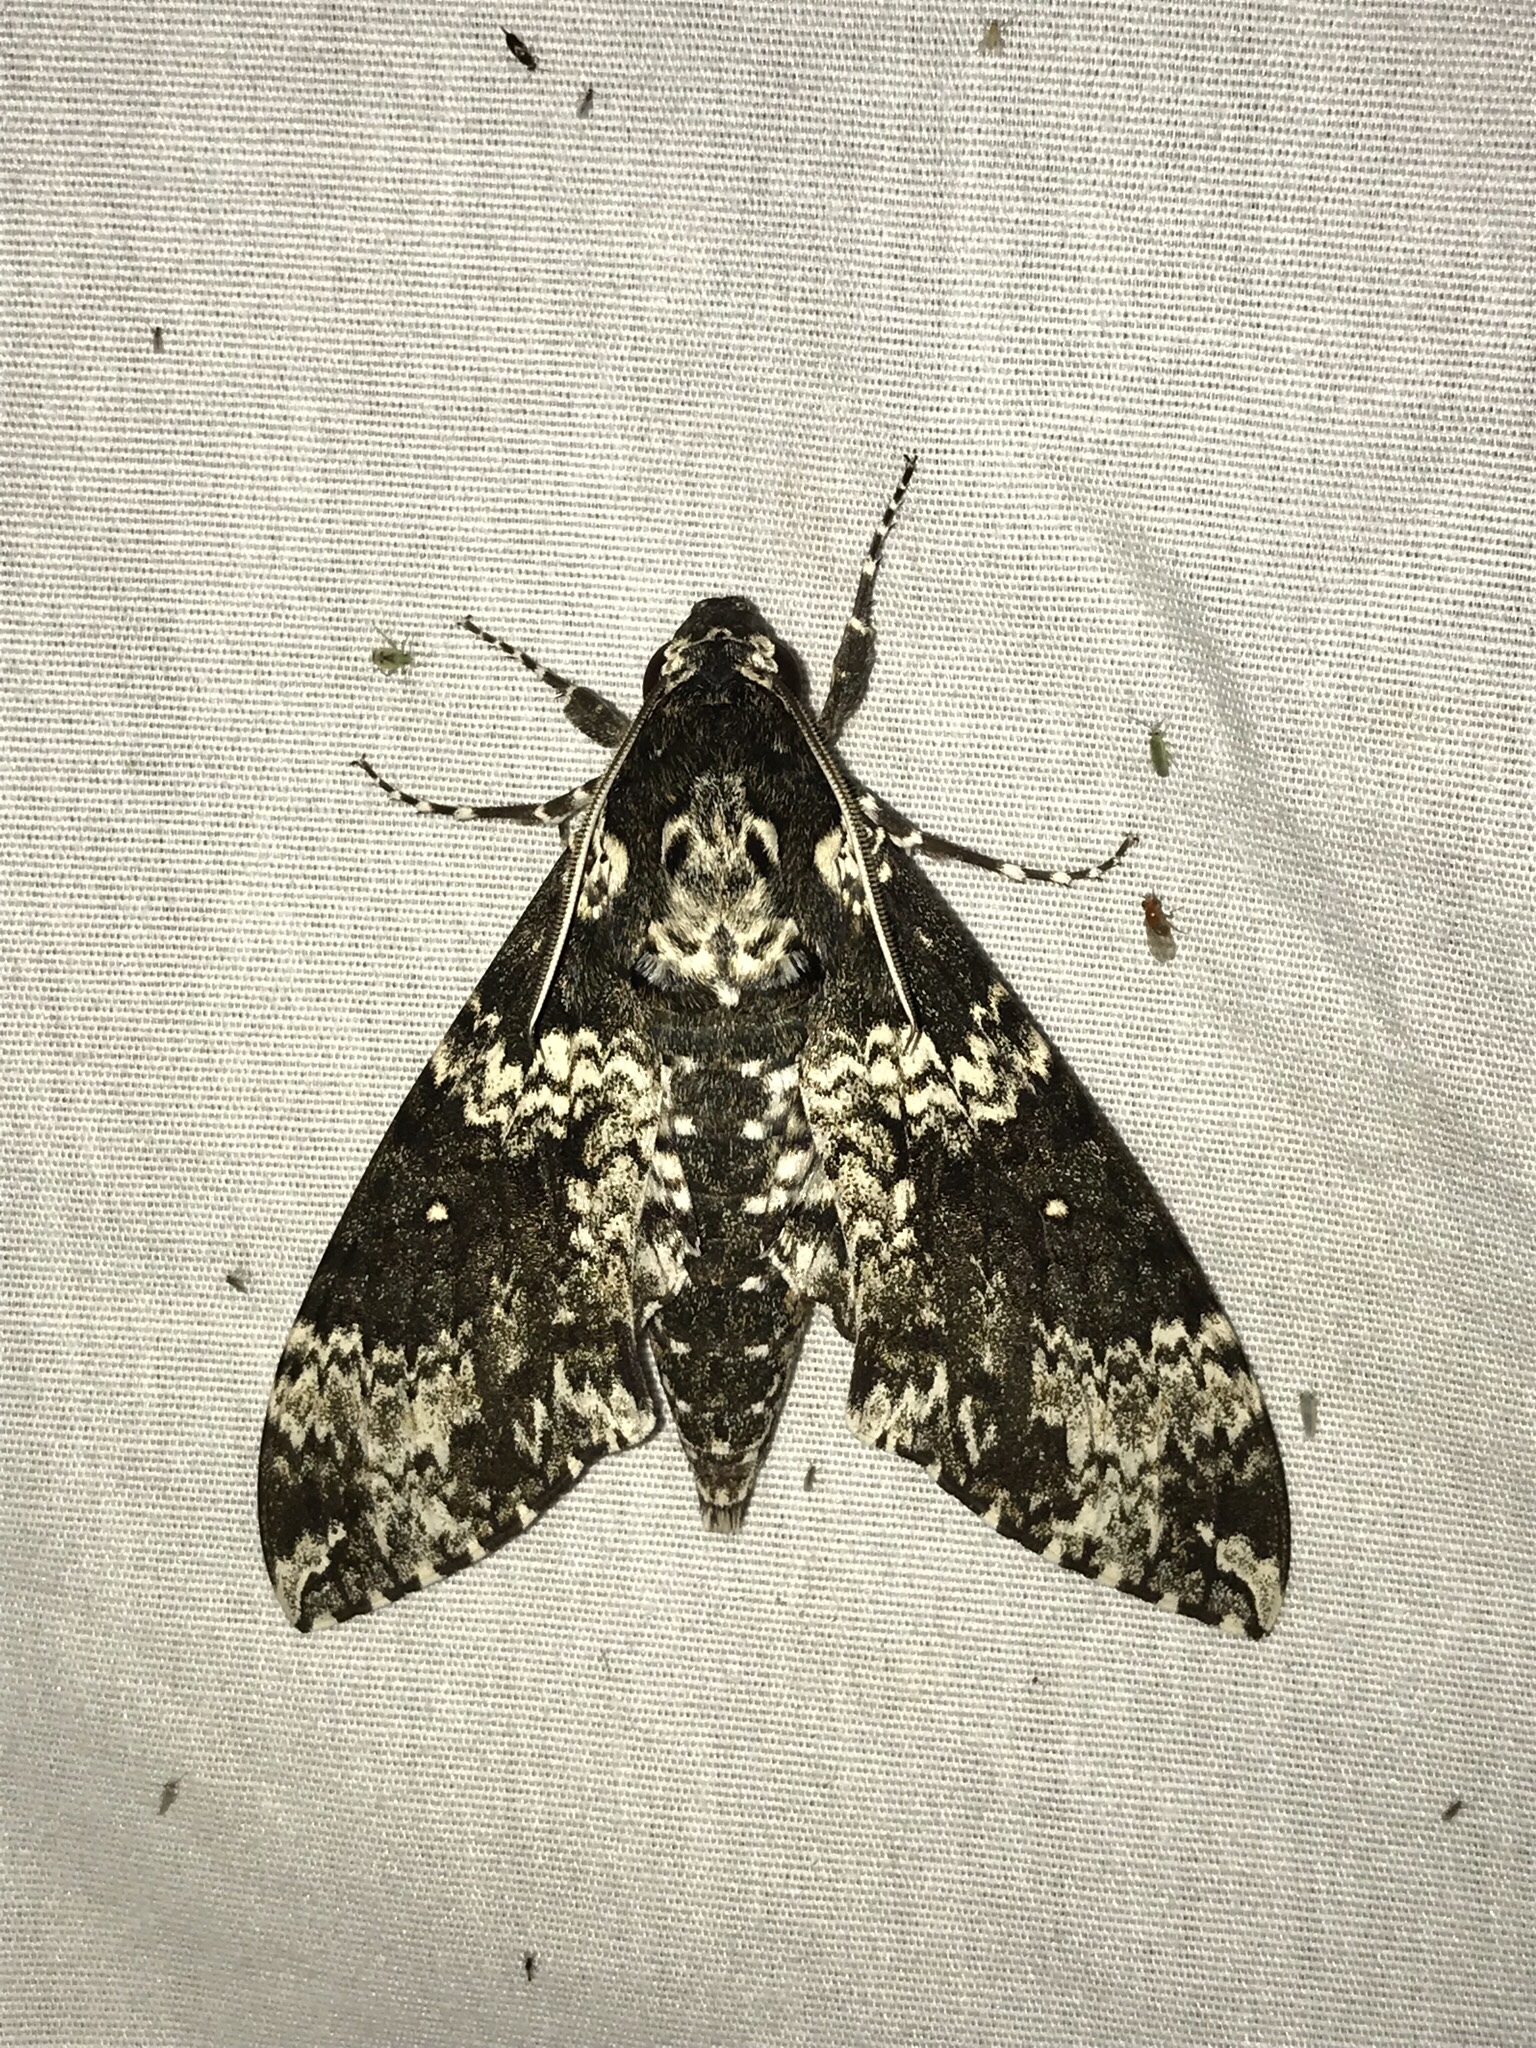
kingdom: Animalia
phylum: Arthropoda
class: Insecta
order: Lepidoptera
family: Sphingidae
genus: Manduca
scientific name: Manduca rustica
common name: Rustic sphinx
